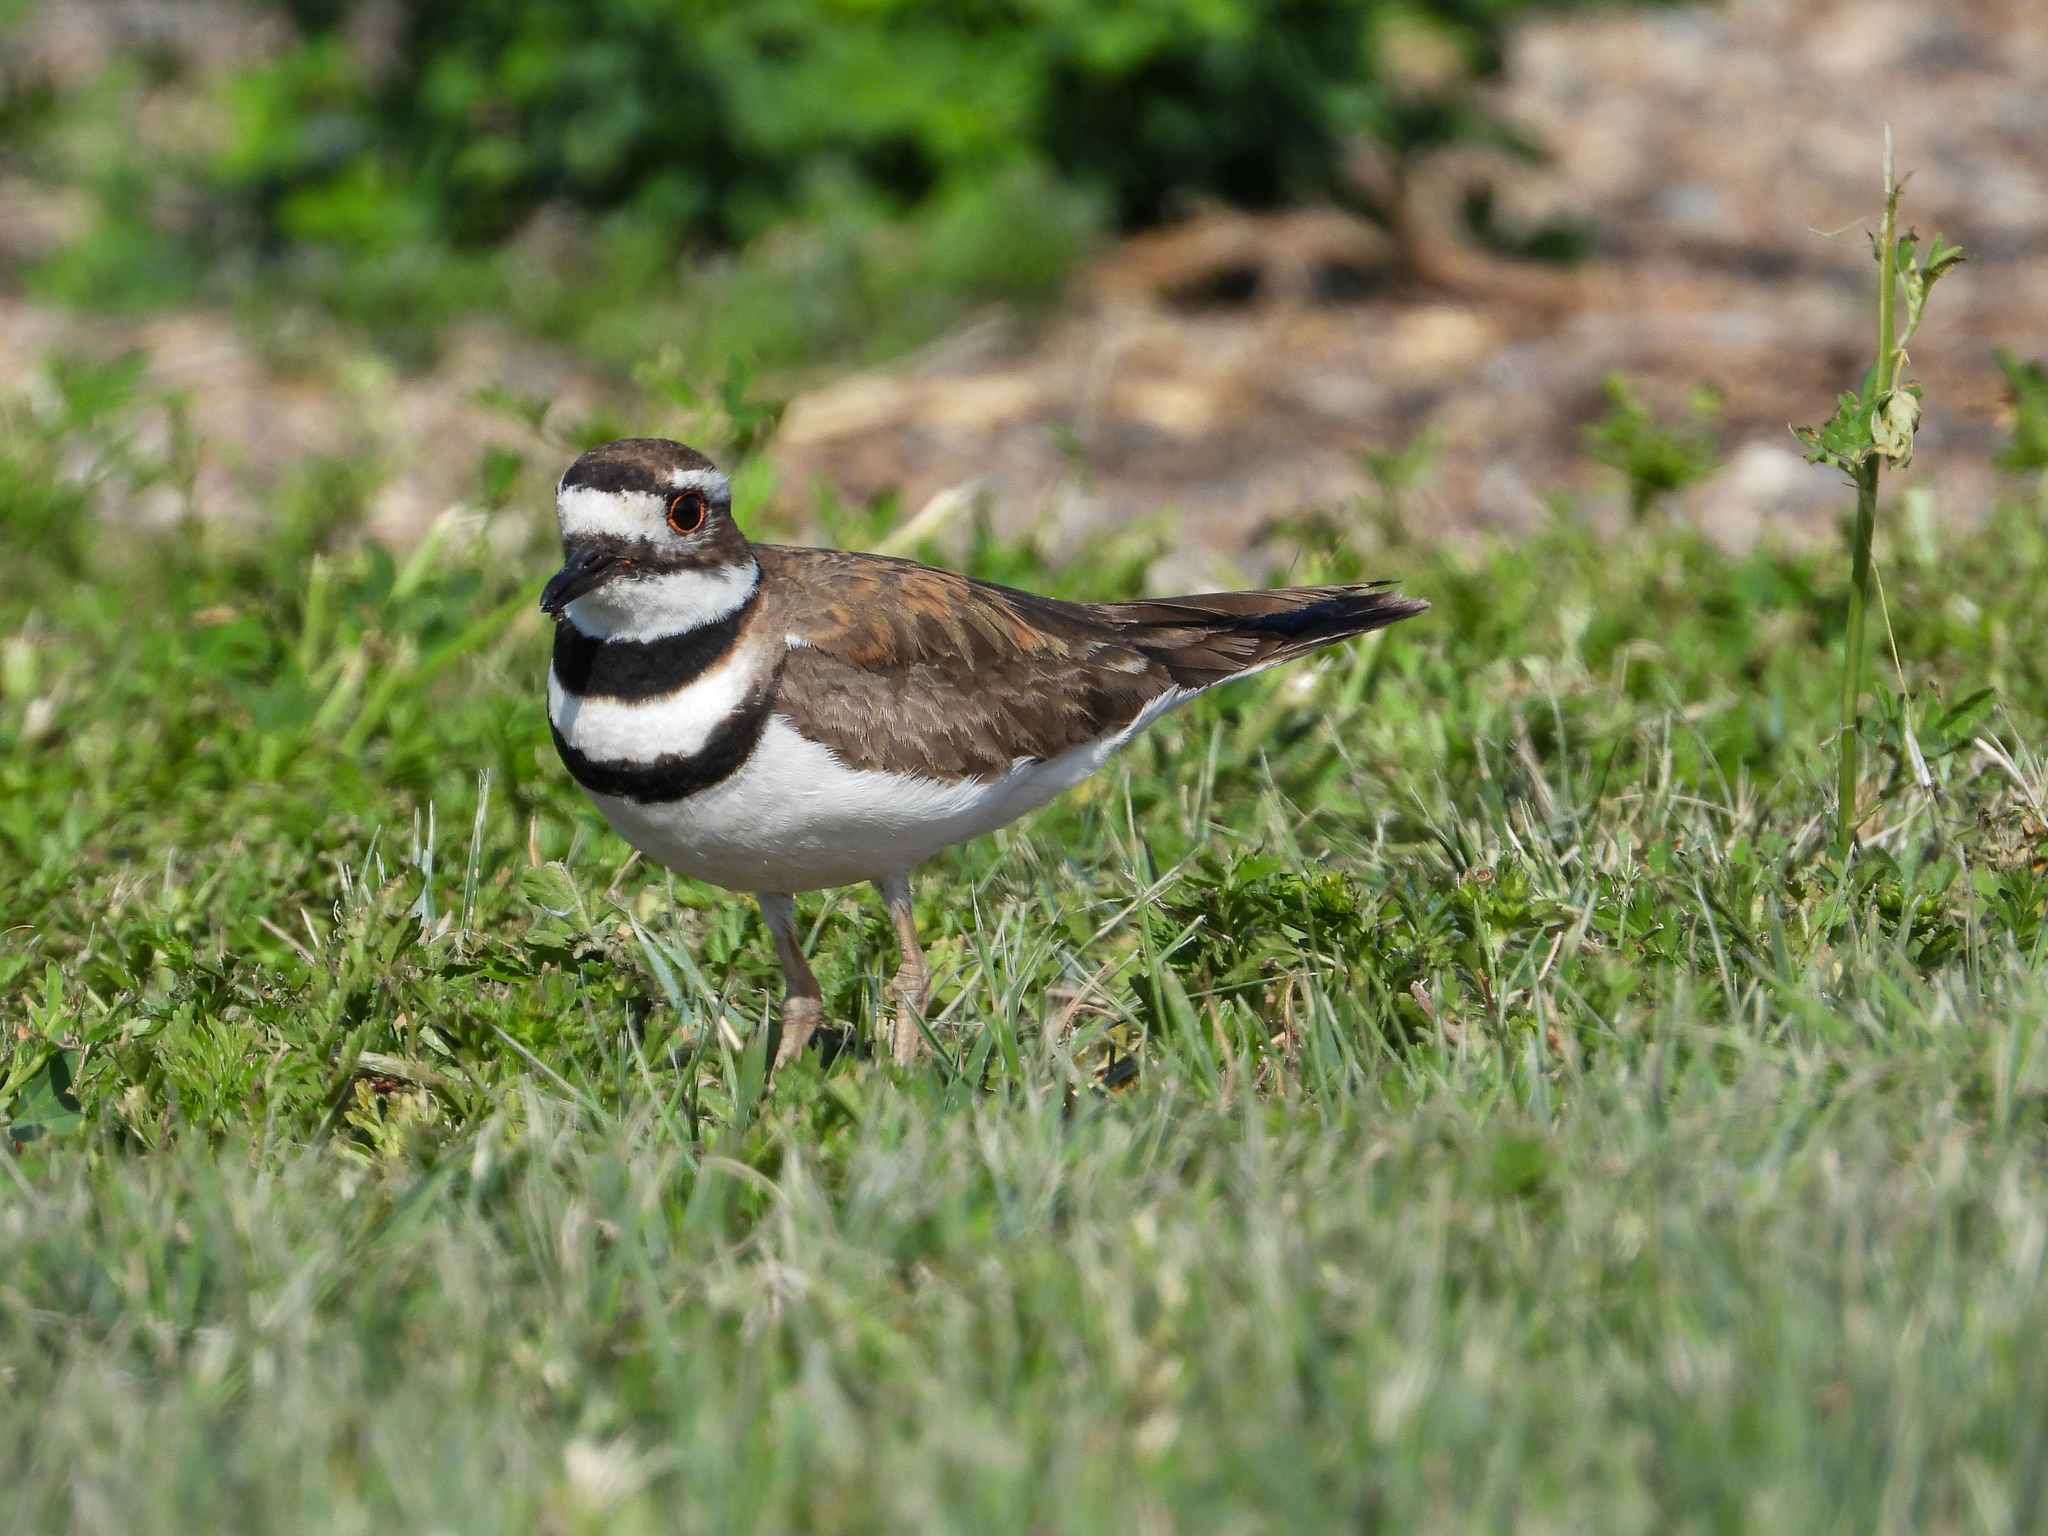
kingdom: Animalia
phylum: Chordata
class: Aves
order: Charadriiformes
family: Charadriidae
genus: Charadrius
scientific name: Charadrius vociferus
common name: Killdeer
